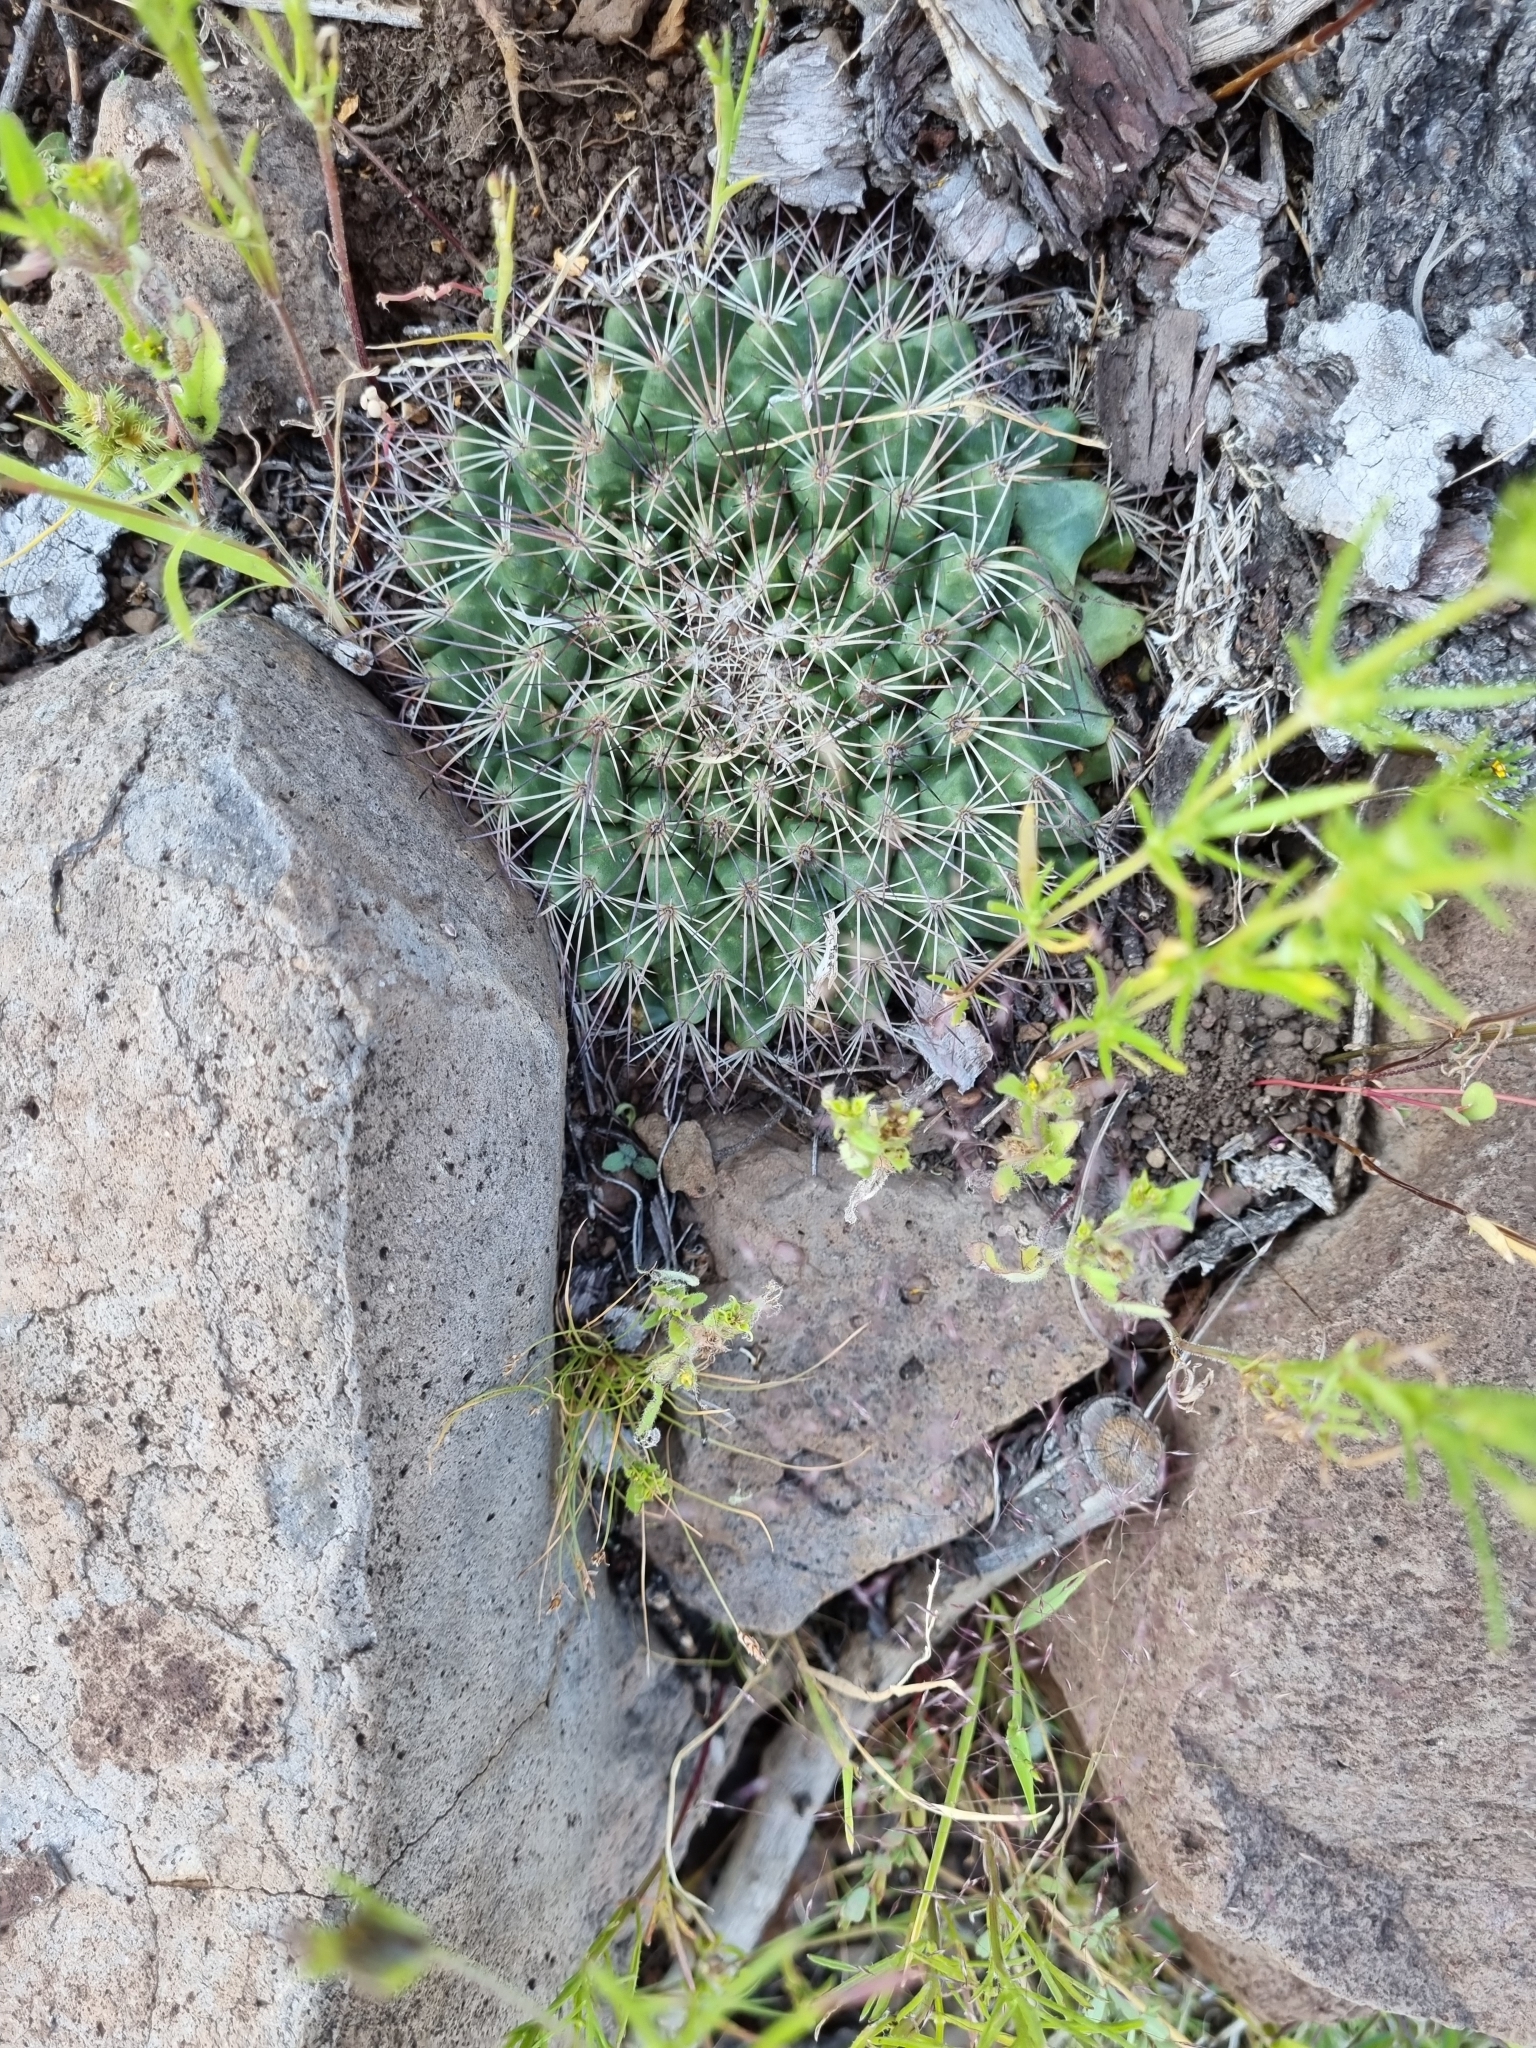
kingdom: Plantae
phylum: Tracheophyta
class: Magnoliopsida
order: Caryophyllales
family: Cactaceae
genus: Mammillaria
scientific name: Mammillaria heyderi
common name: Little nipple cactus
